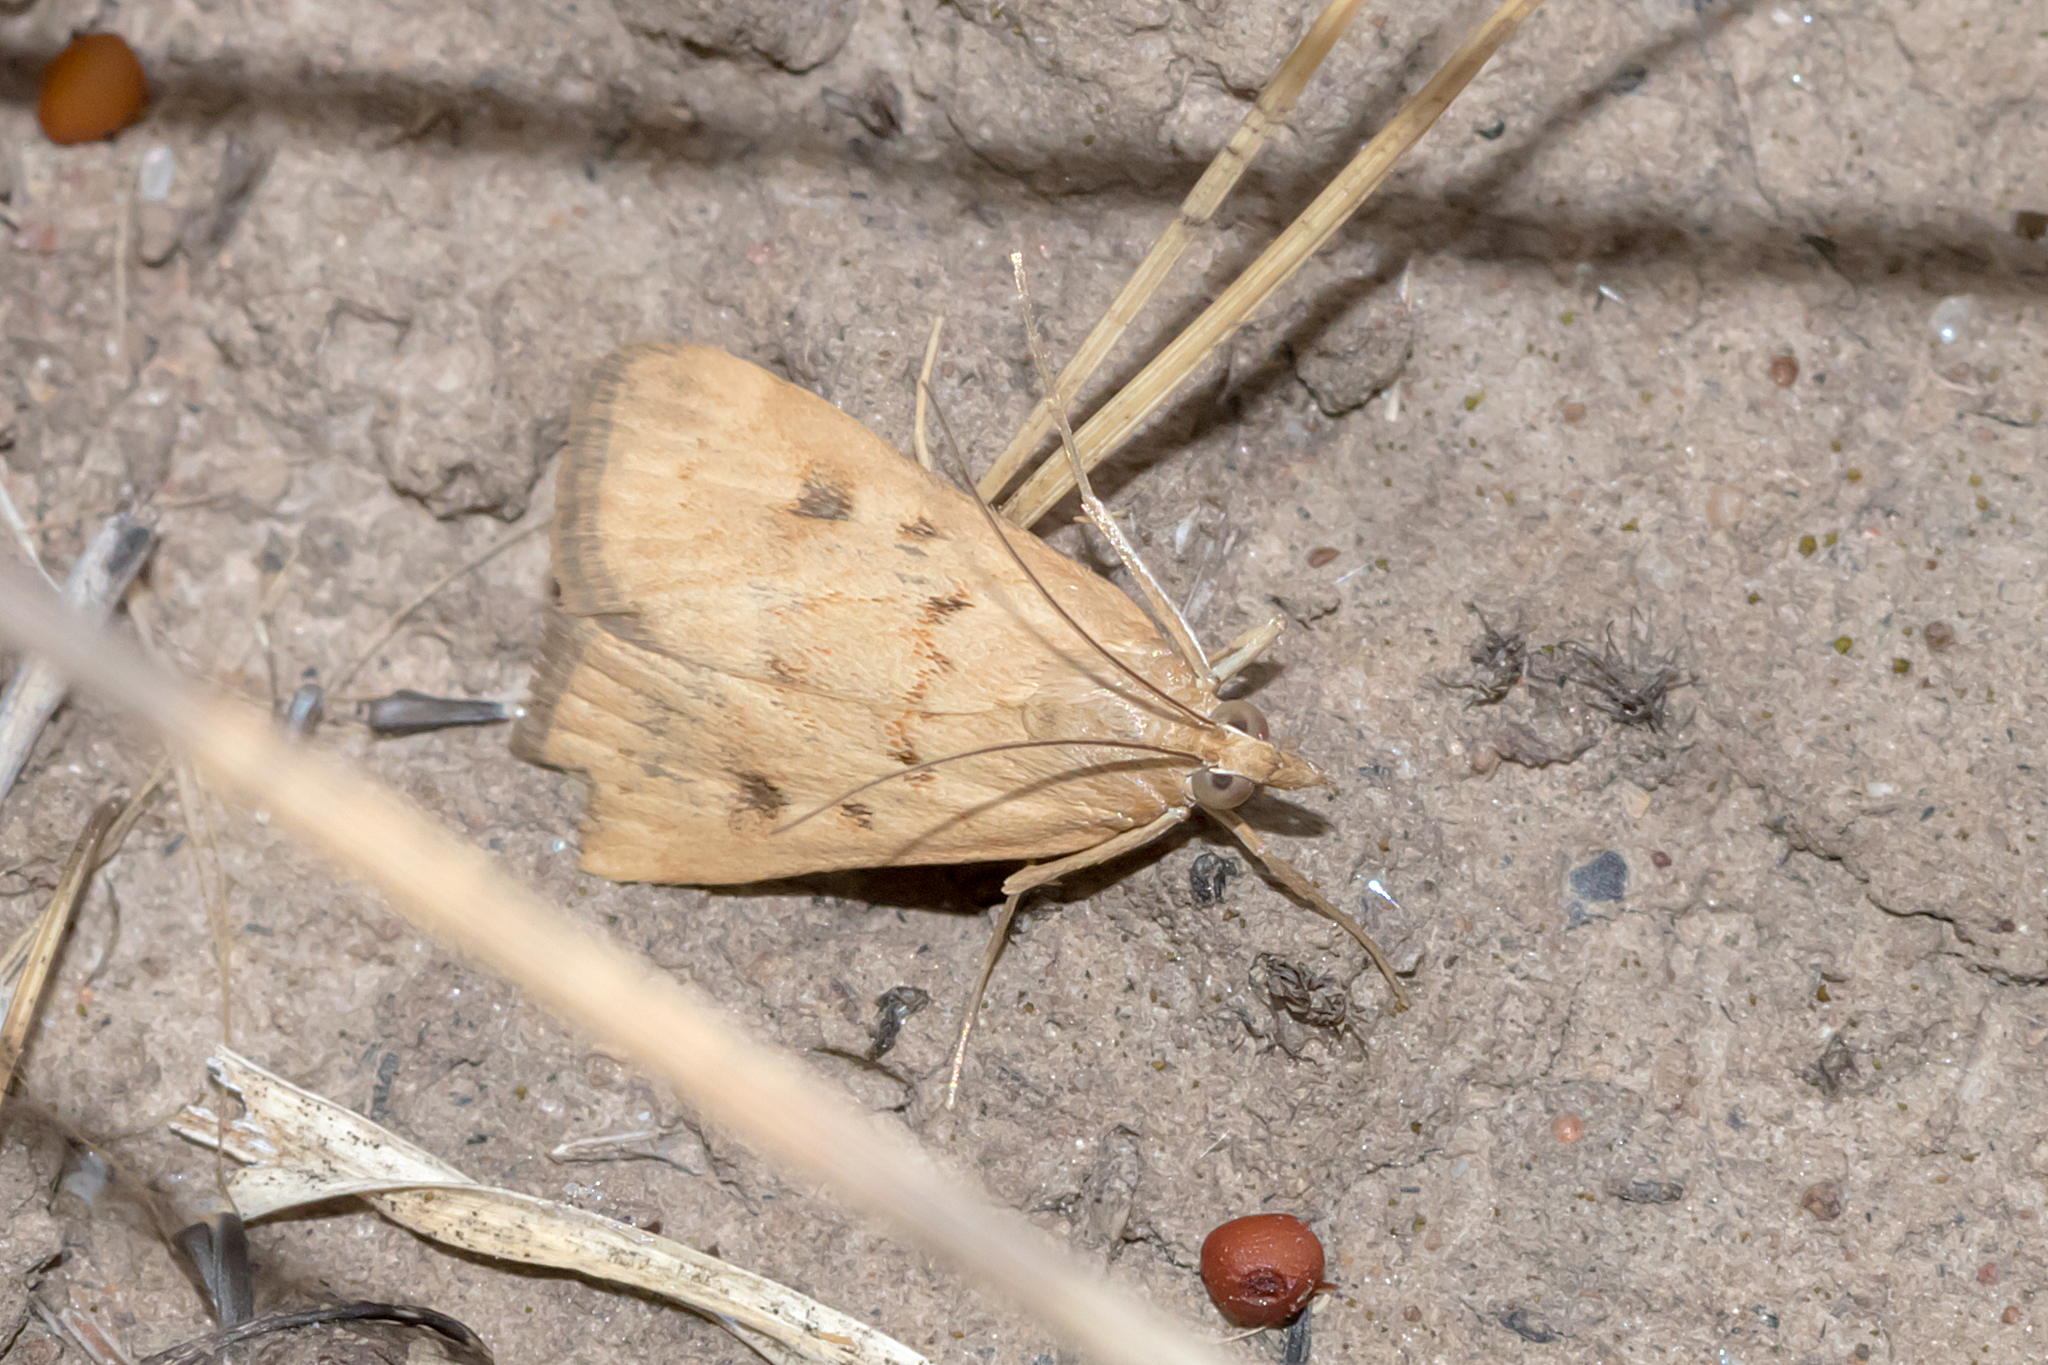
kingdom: Animalia
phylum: Arthropoda
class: Insecta
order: Lepidoptera
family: Crambidae
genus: Achyra
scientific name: Achyra affinitalis
